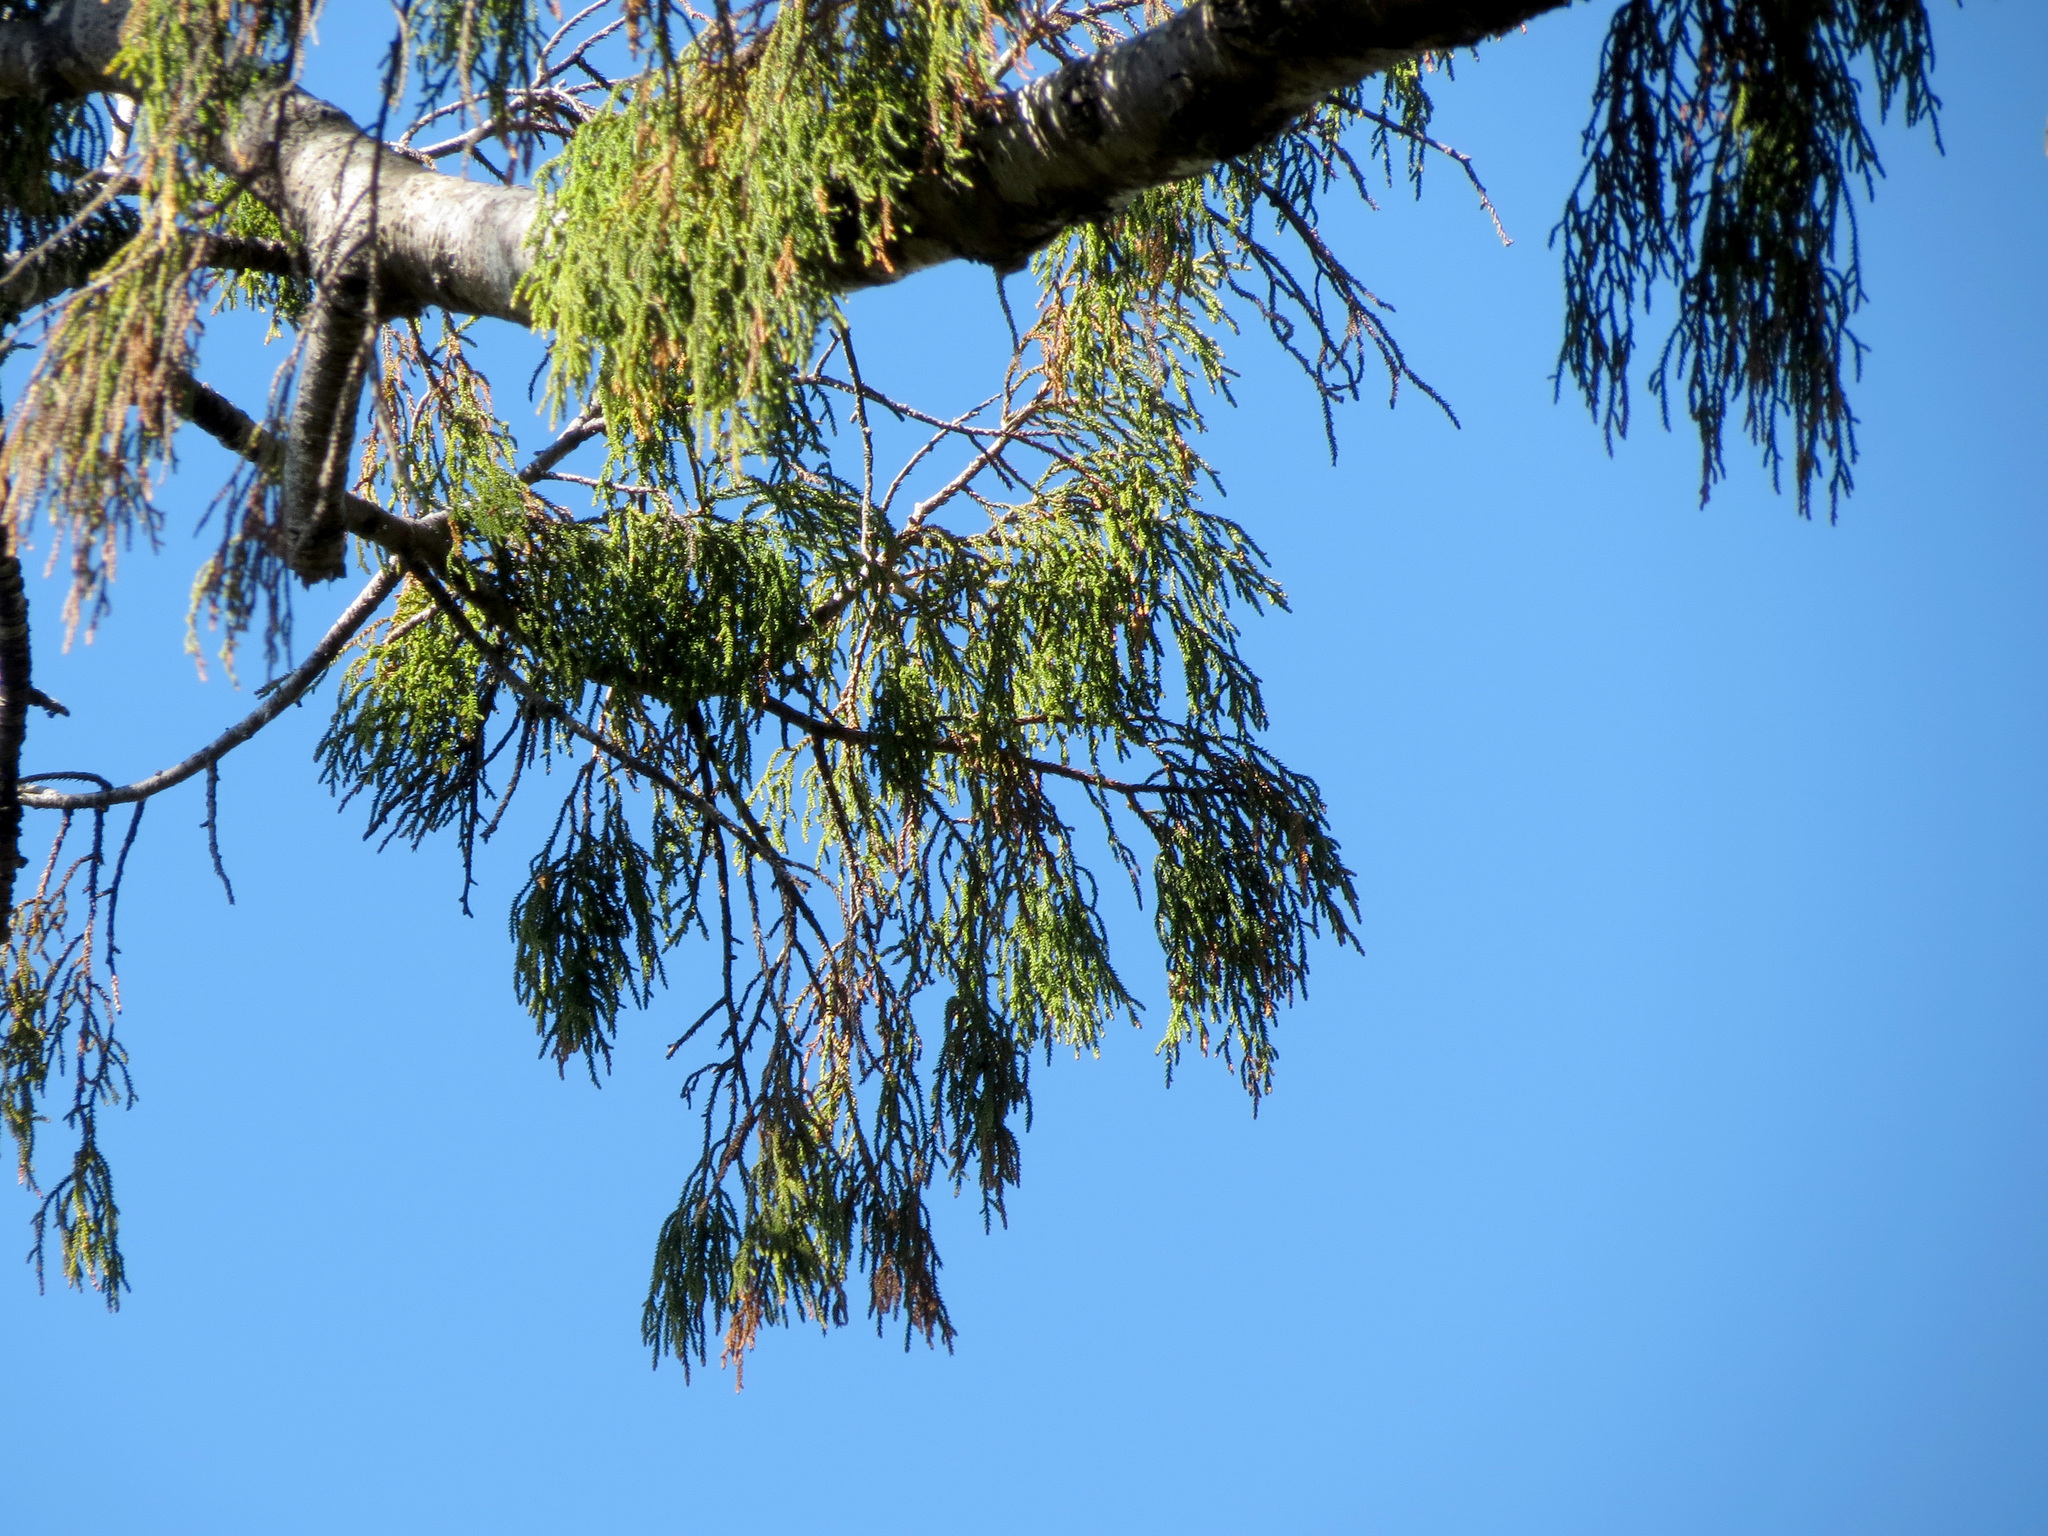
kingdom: Plantae
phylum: Tracheophyta
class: Pinopsida
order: Pinales
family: Podocarpaceae
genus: Dacrydium
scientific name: Dacrydium cupressinum
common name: Red pine
